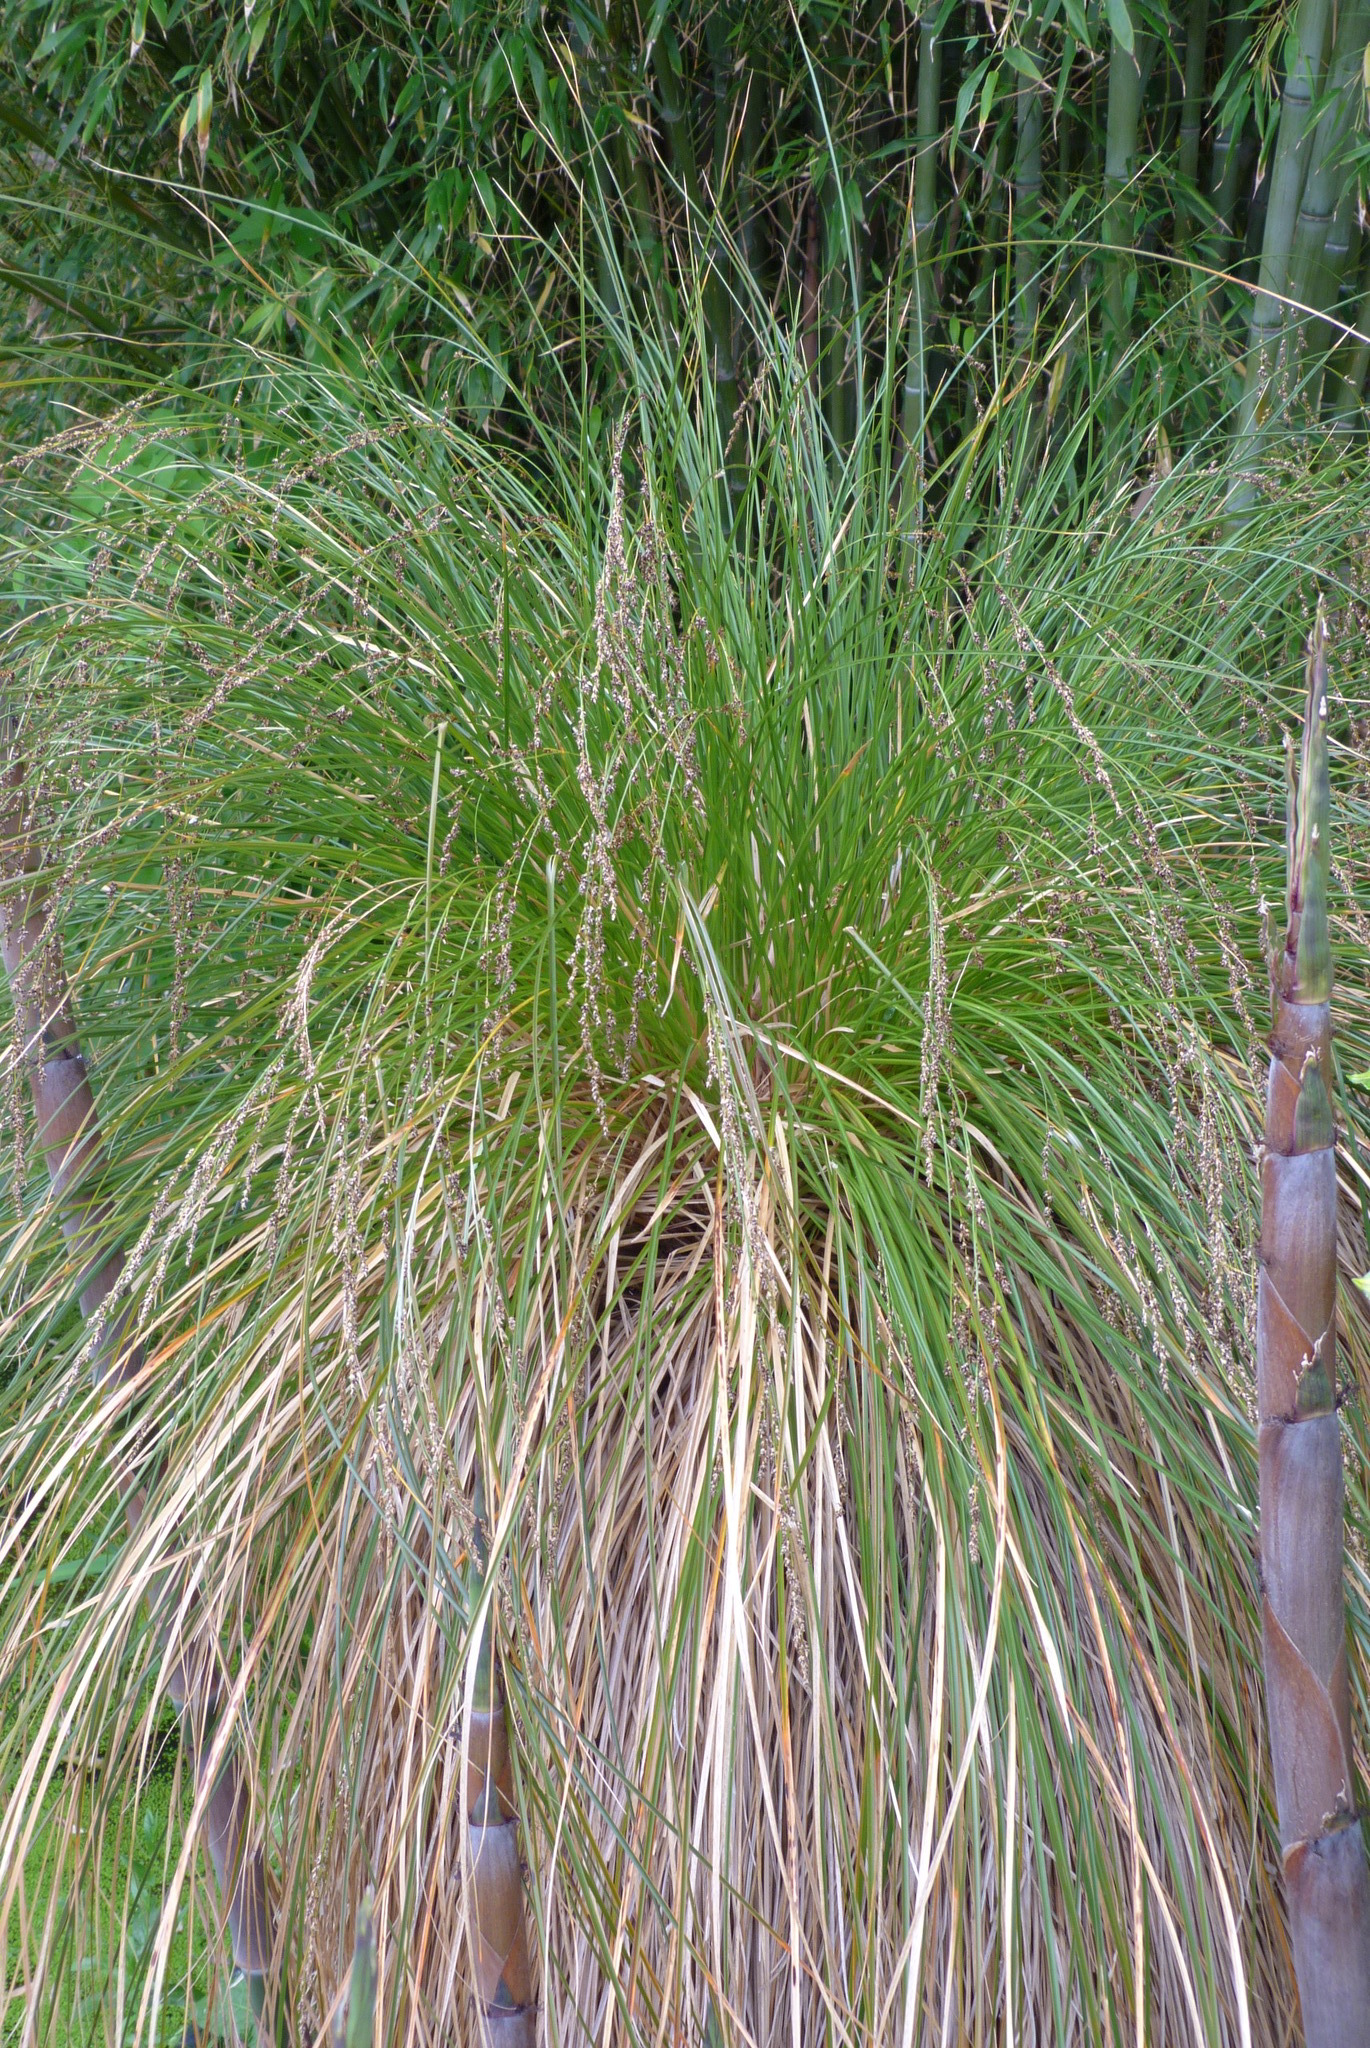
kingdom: Plantae
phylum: Tracheophyta
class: Liliopsida
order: Poales
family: Cyperaceae
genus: Carex
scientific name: Carex secta
